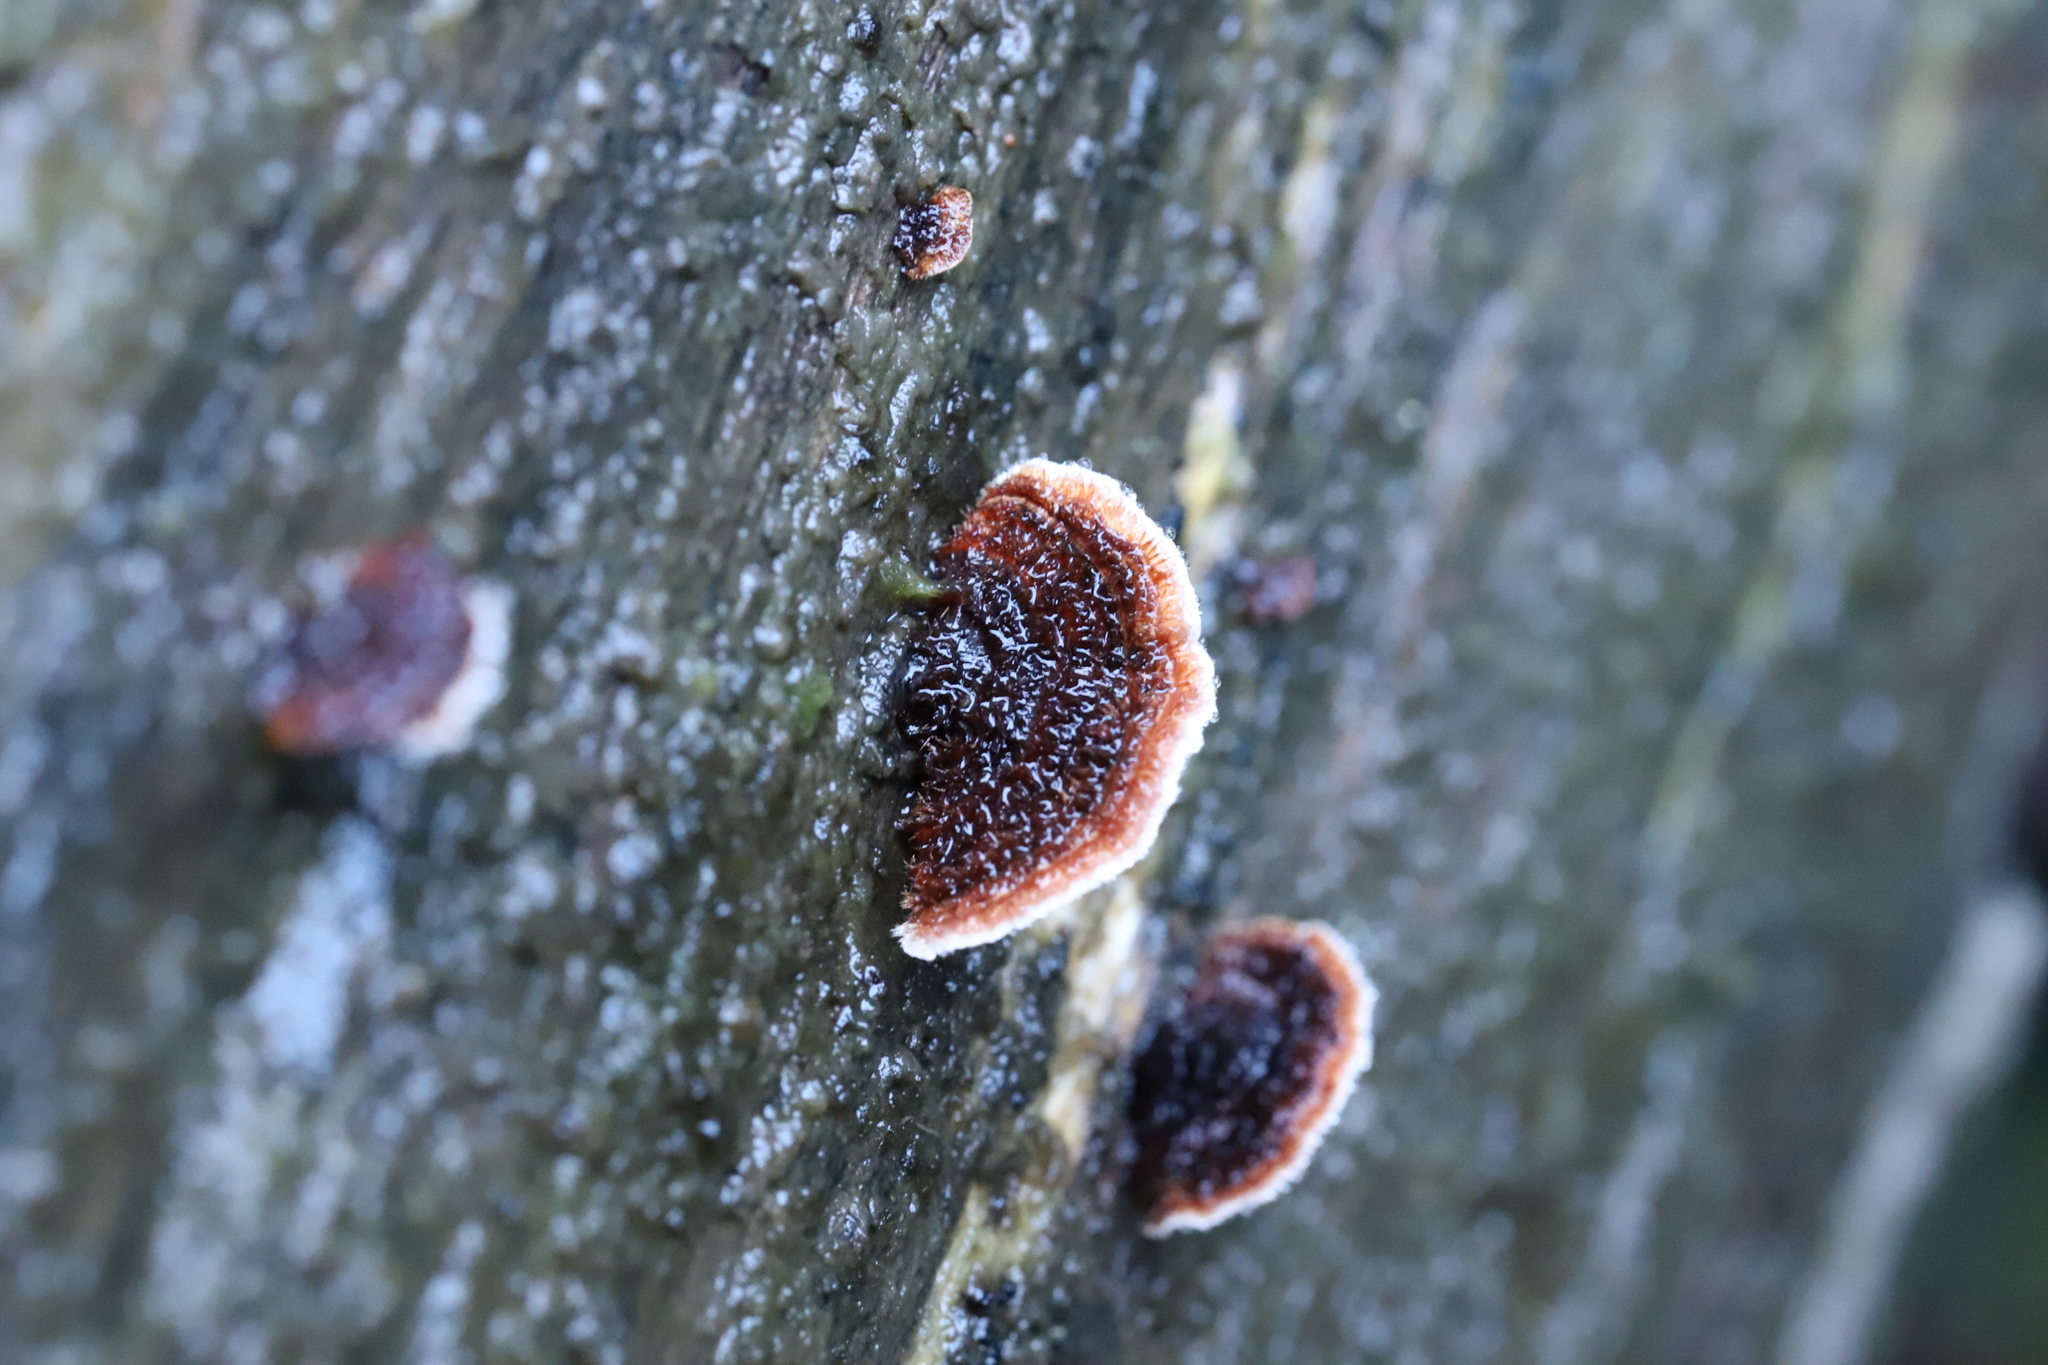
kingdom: Fungi
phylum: Basidiomycota
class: Agaricomycetes
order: Russulales
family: Stereaceae
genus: Xylobolus
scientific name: Xylobolus illudens
